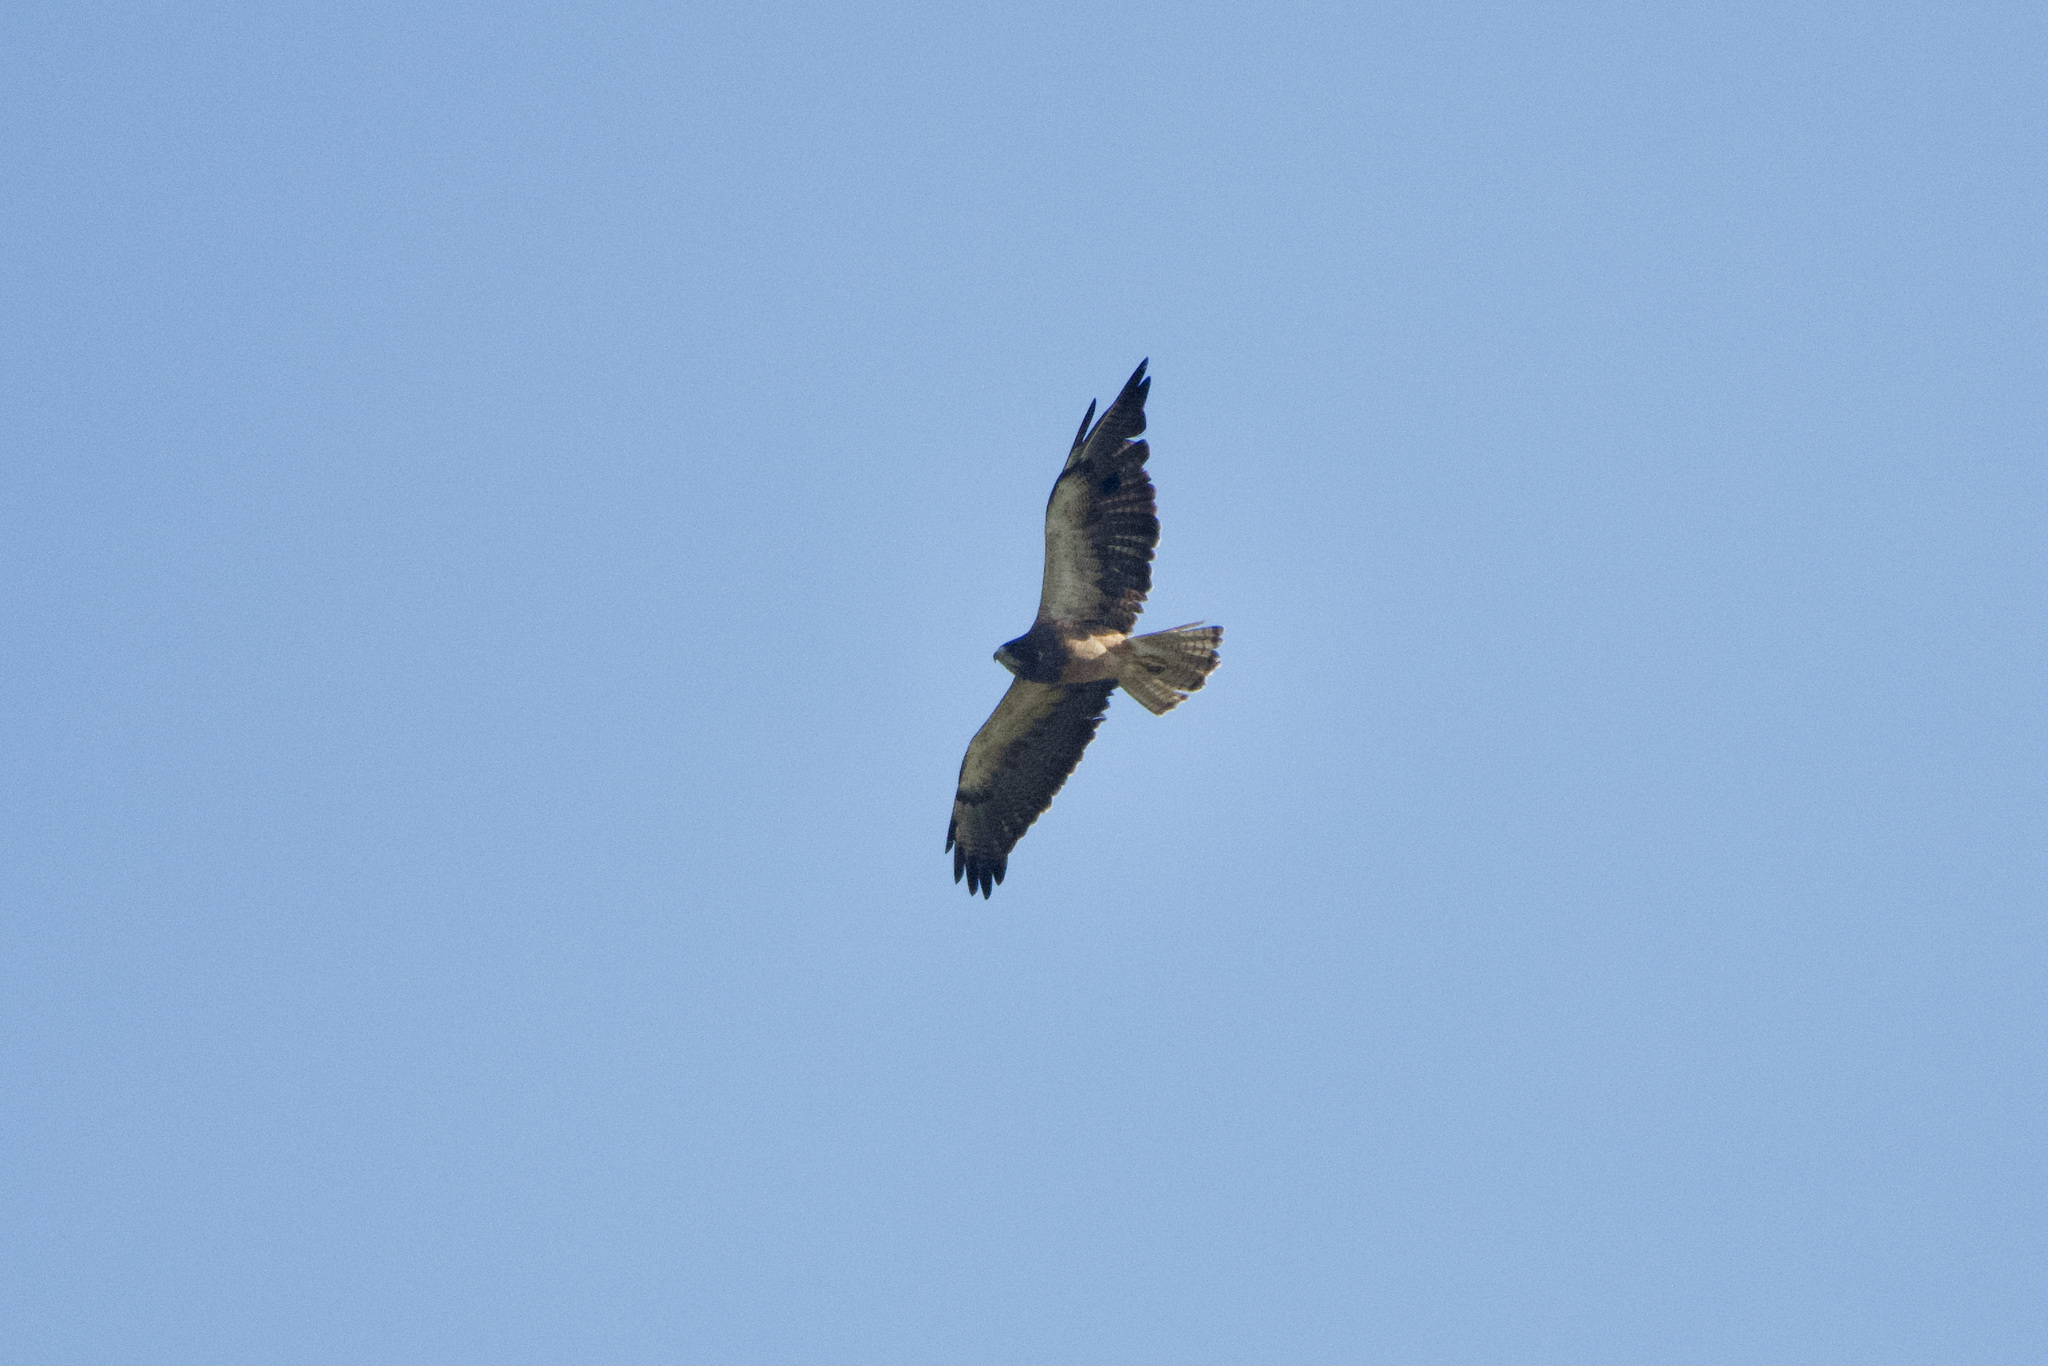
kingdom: Animalia
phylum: Chordata
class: Aves
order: Accipitriformes
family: Accipitridae
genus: Buteo
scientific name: Buteo swainsoni
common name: Swainson's hawk
